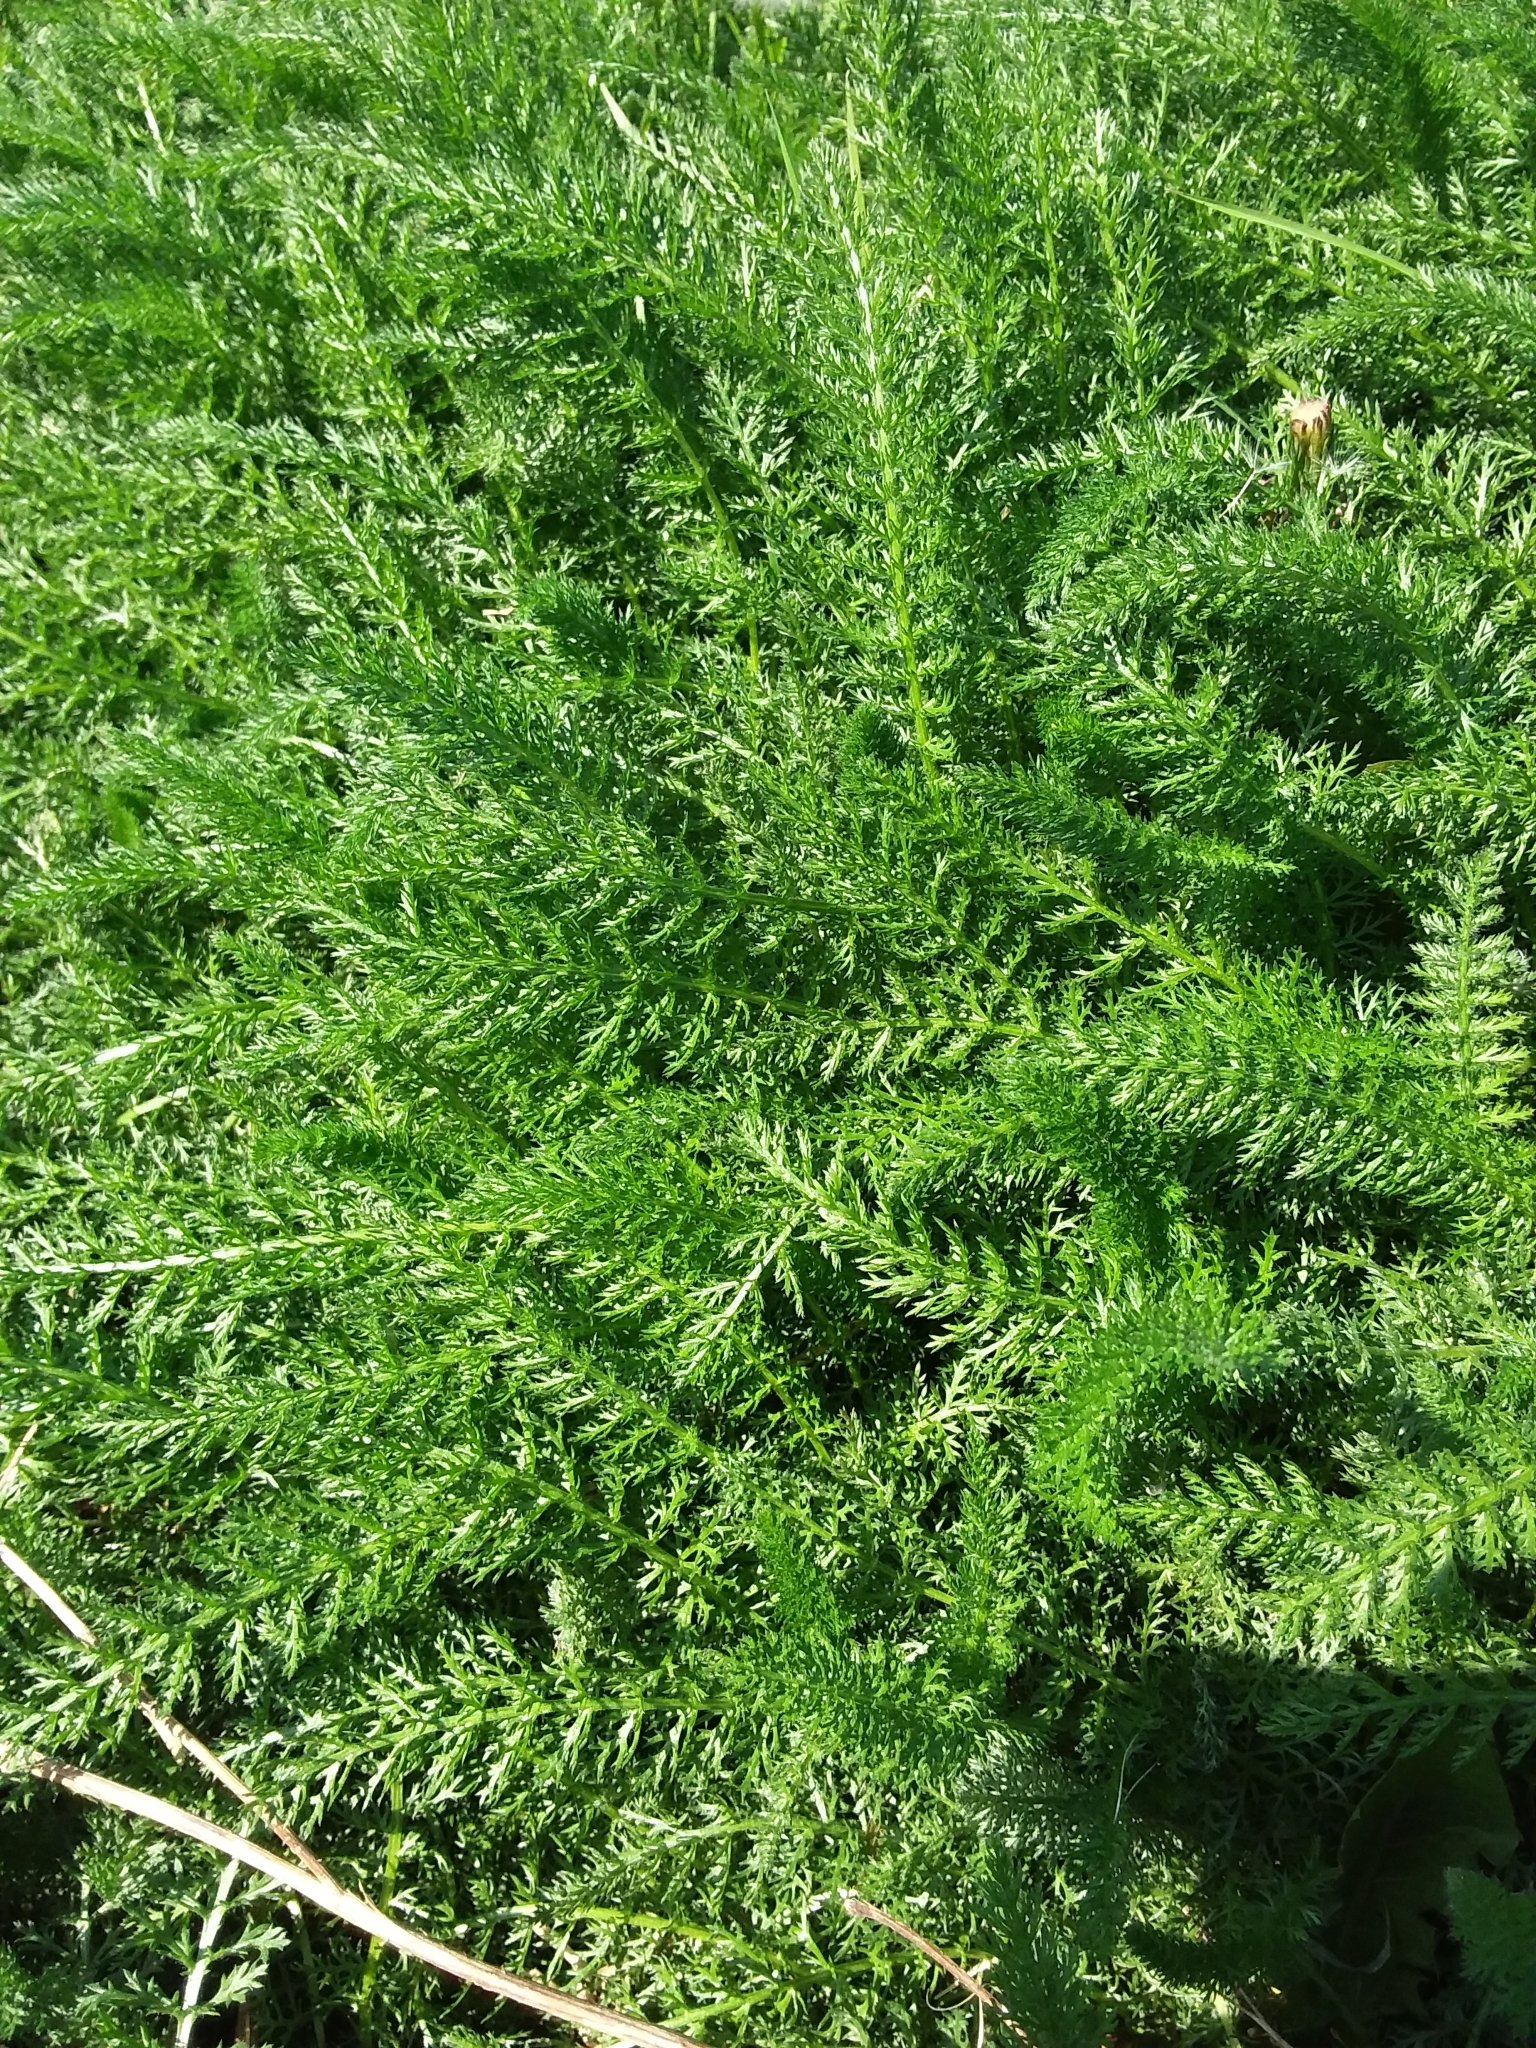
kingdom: Plantae
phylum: Tracheophyta
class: Magnoliopsida
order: Asterales
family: Asteraceae
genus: Achillea
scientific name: Achillea millefolium
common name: Yarrow
